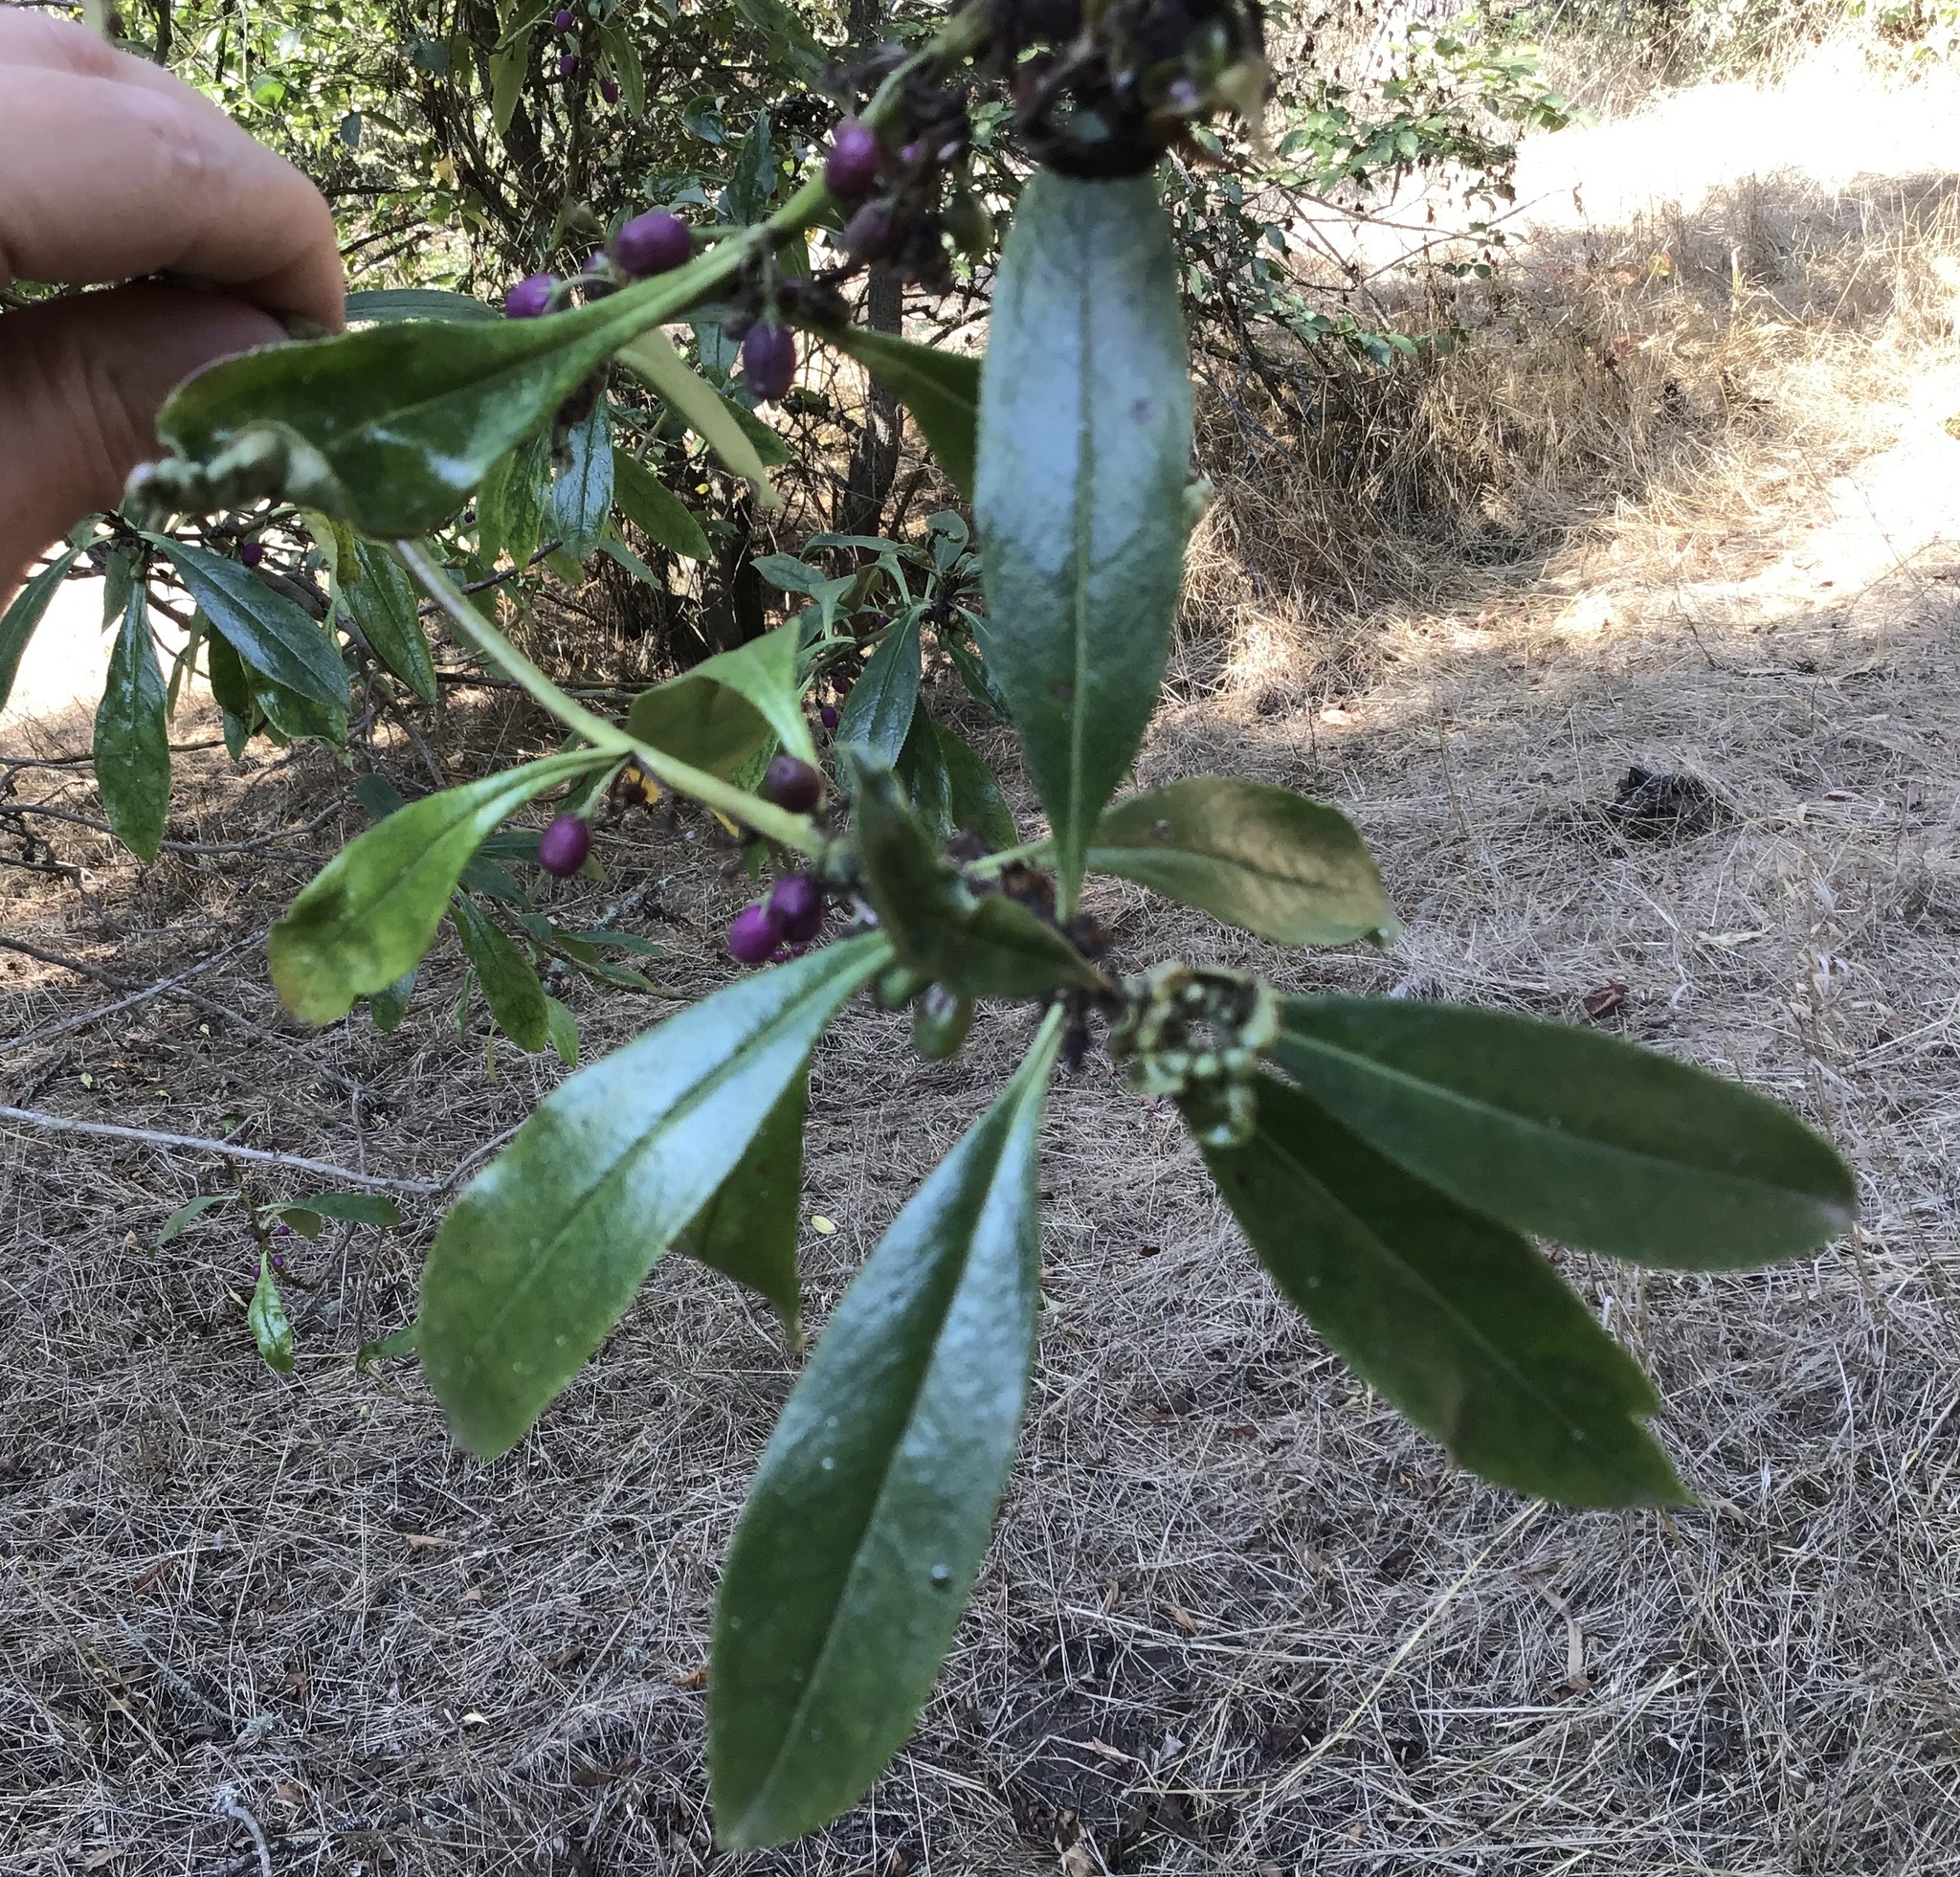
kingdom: Plantae
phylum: Tracheophyta
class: Magnoliopsida
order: Lamiales
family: Scrophulariaceae
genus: Myoporum
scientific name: Myoporum laetum
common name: Ngaio tree
